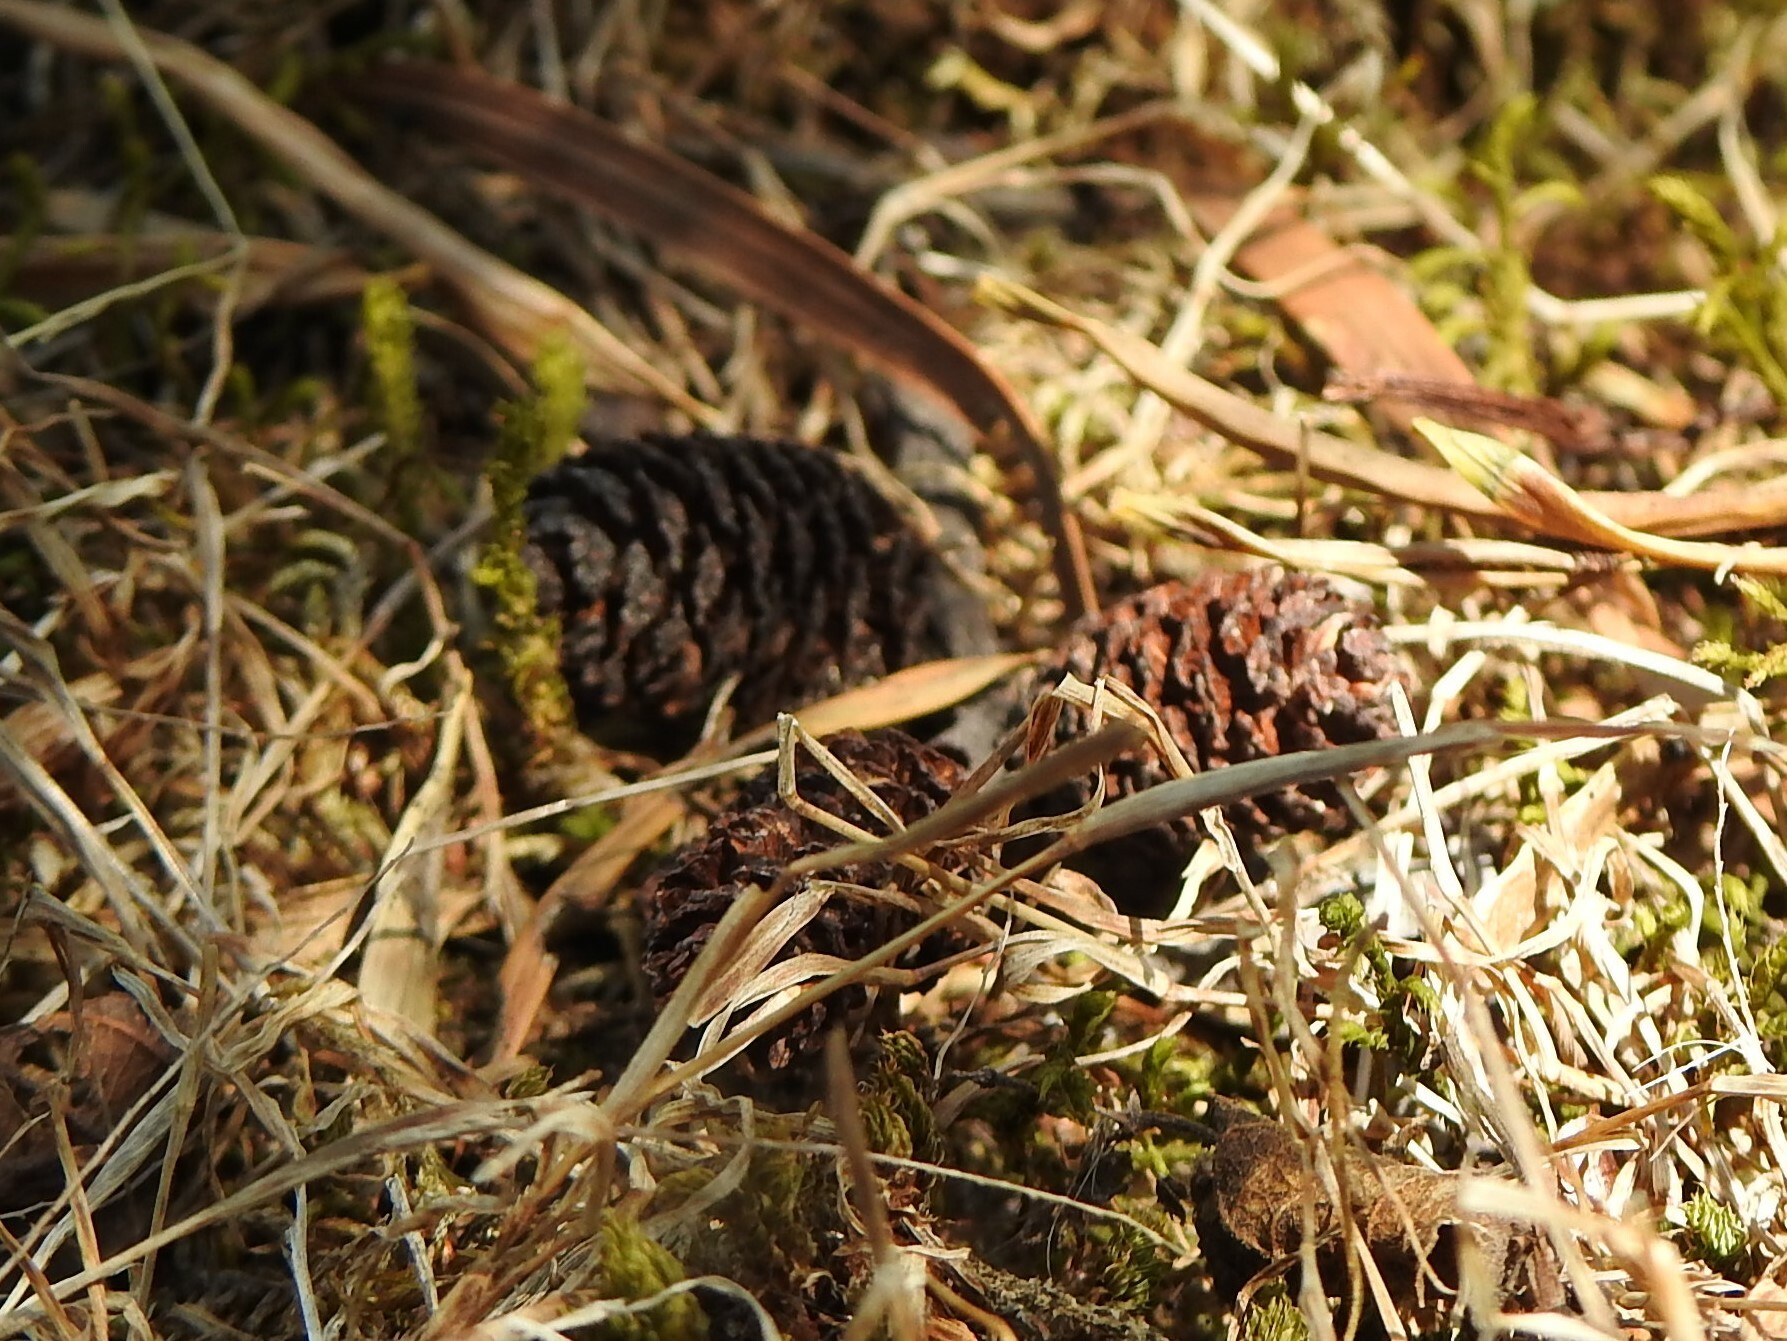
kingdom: Plantae
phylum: Tracheophyta
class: Magnoliopsida
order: Fagales
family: Betulaceae
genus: Alnus
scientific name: Alnus acuminata
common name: Alder
